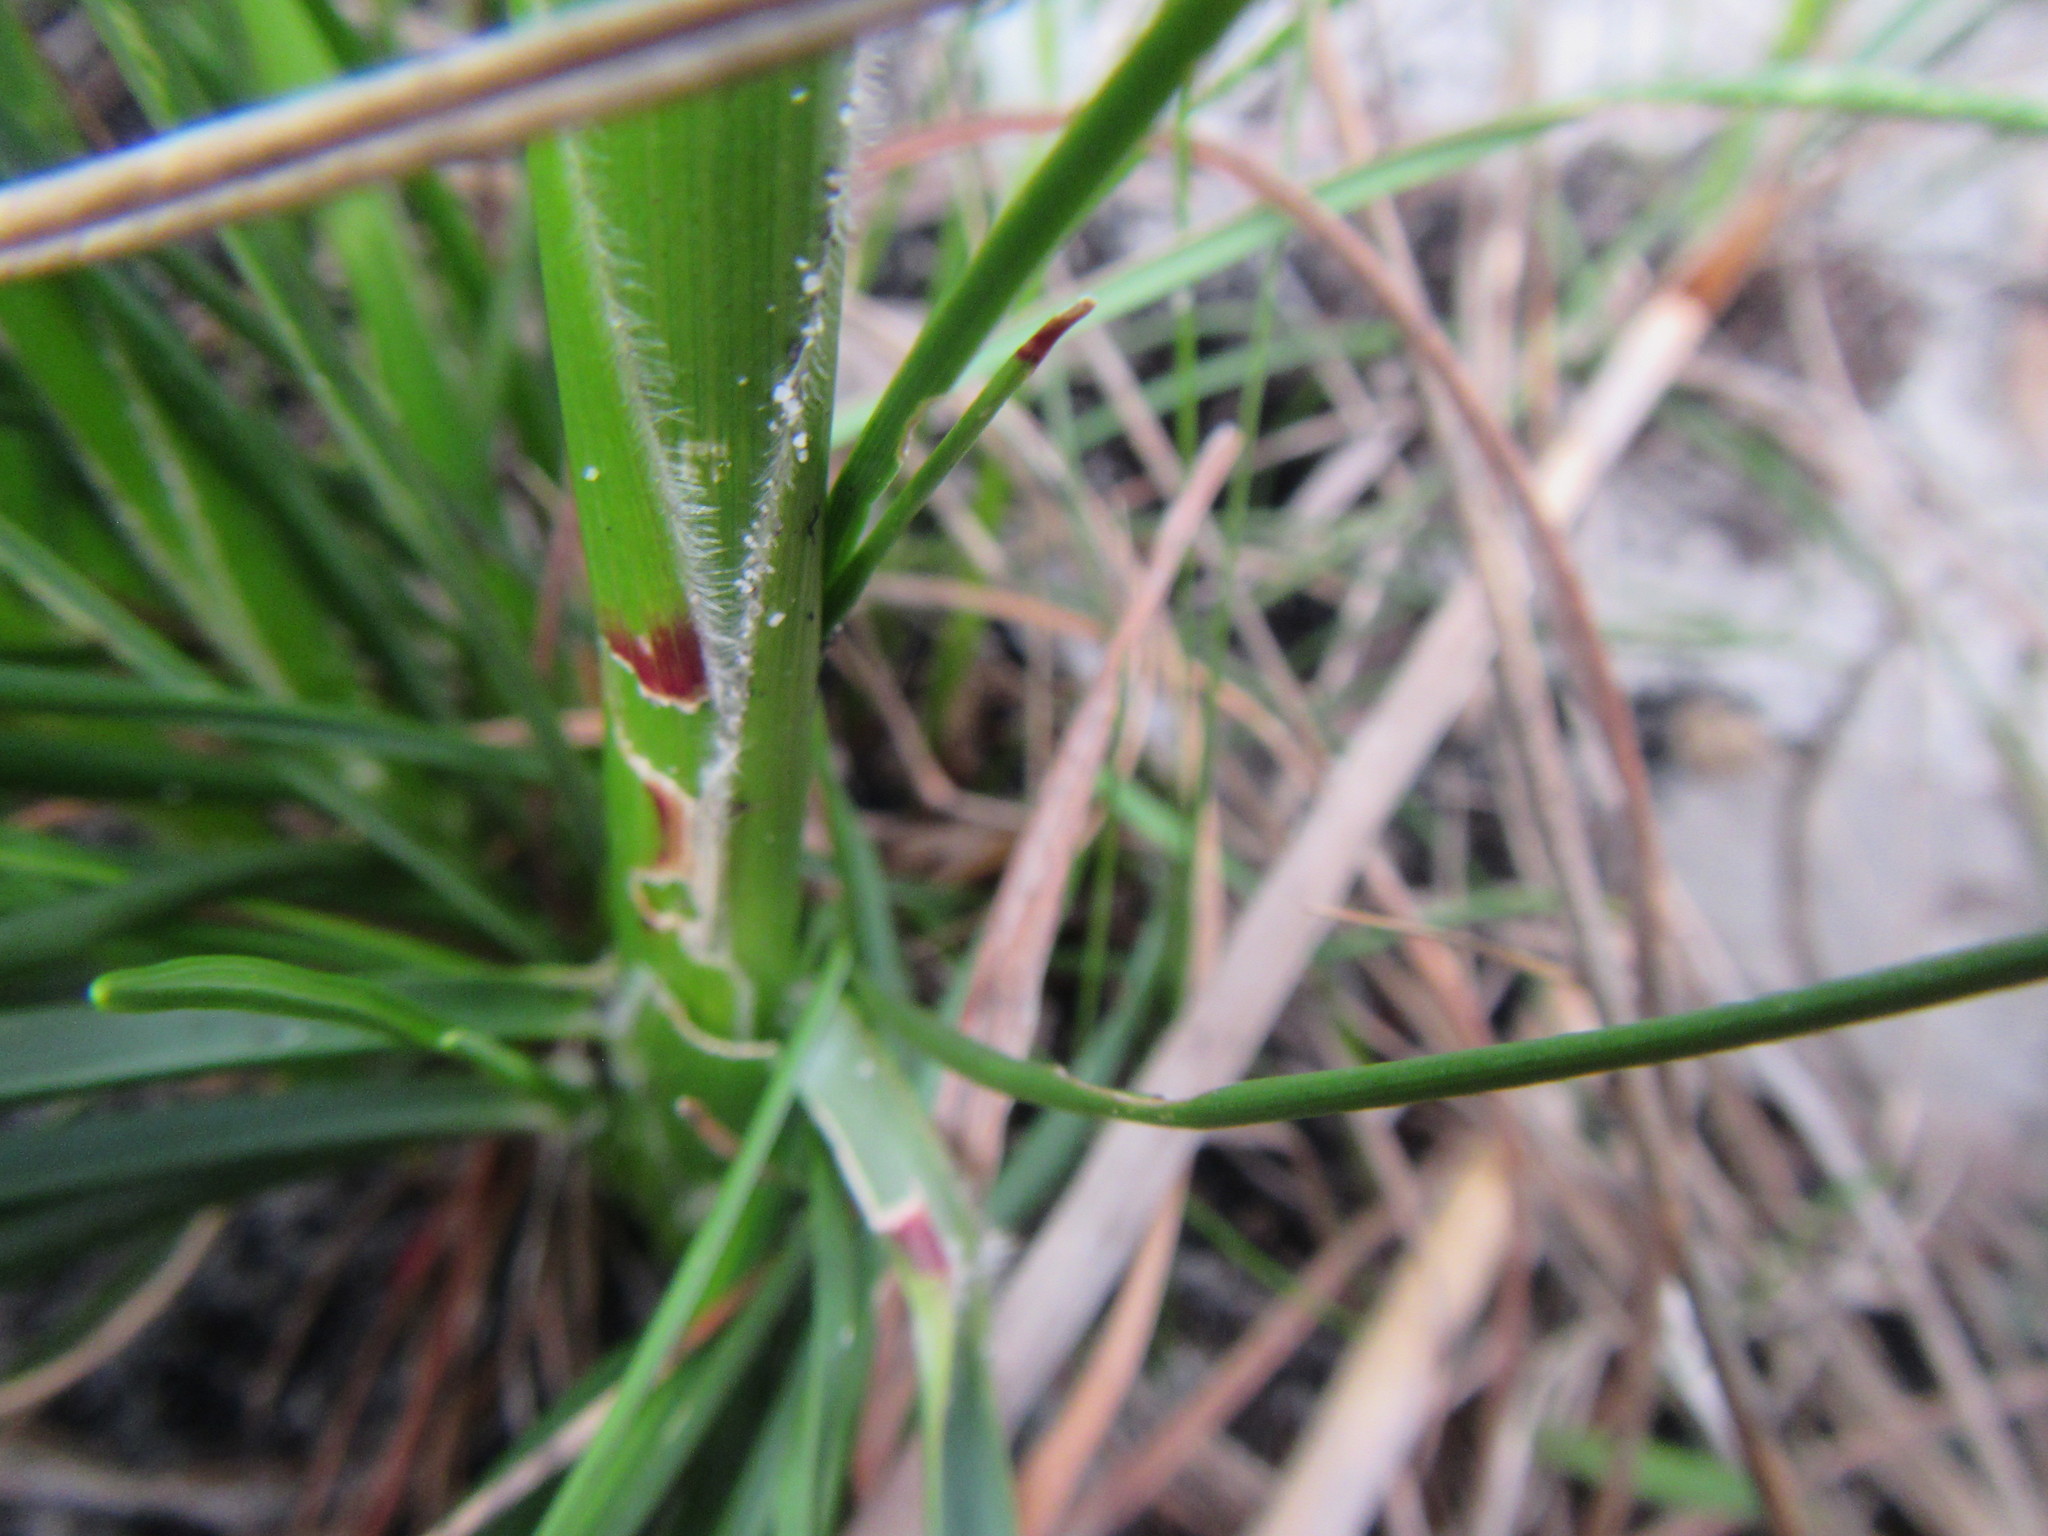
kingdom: Plantae
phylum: Tracheophyta
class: Liliopsida
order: Poales
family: Poaceae
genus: Pentameris
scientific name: Pentameris aristidoides
